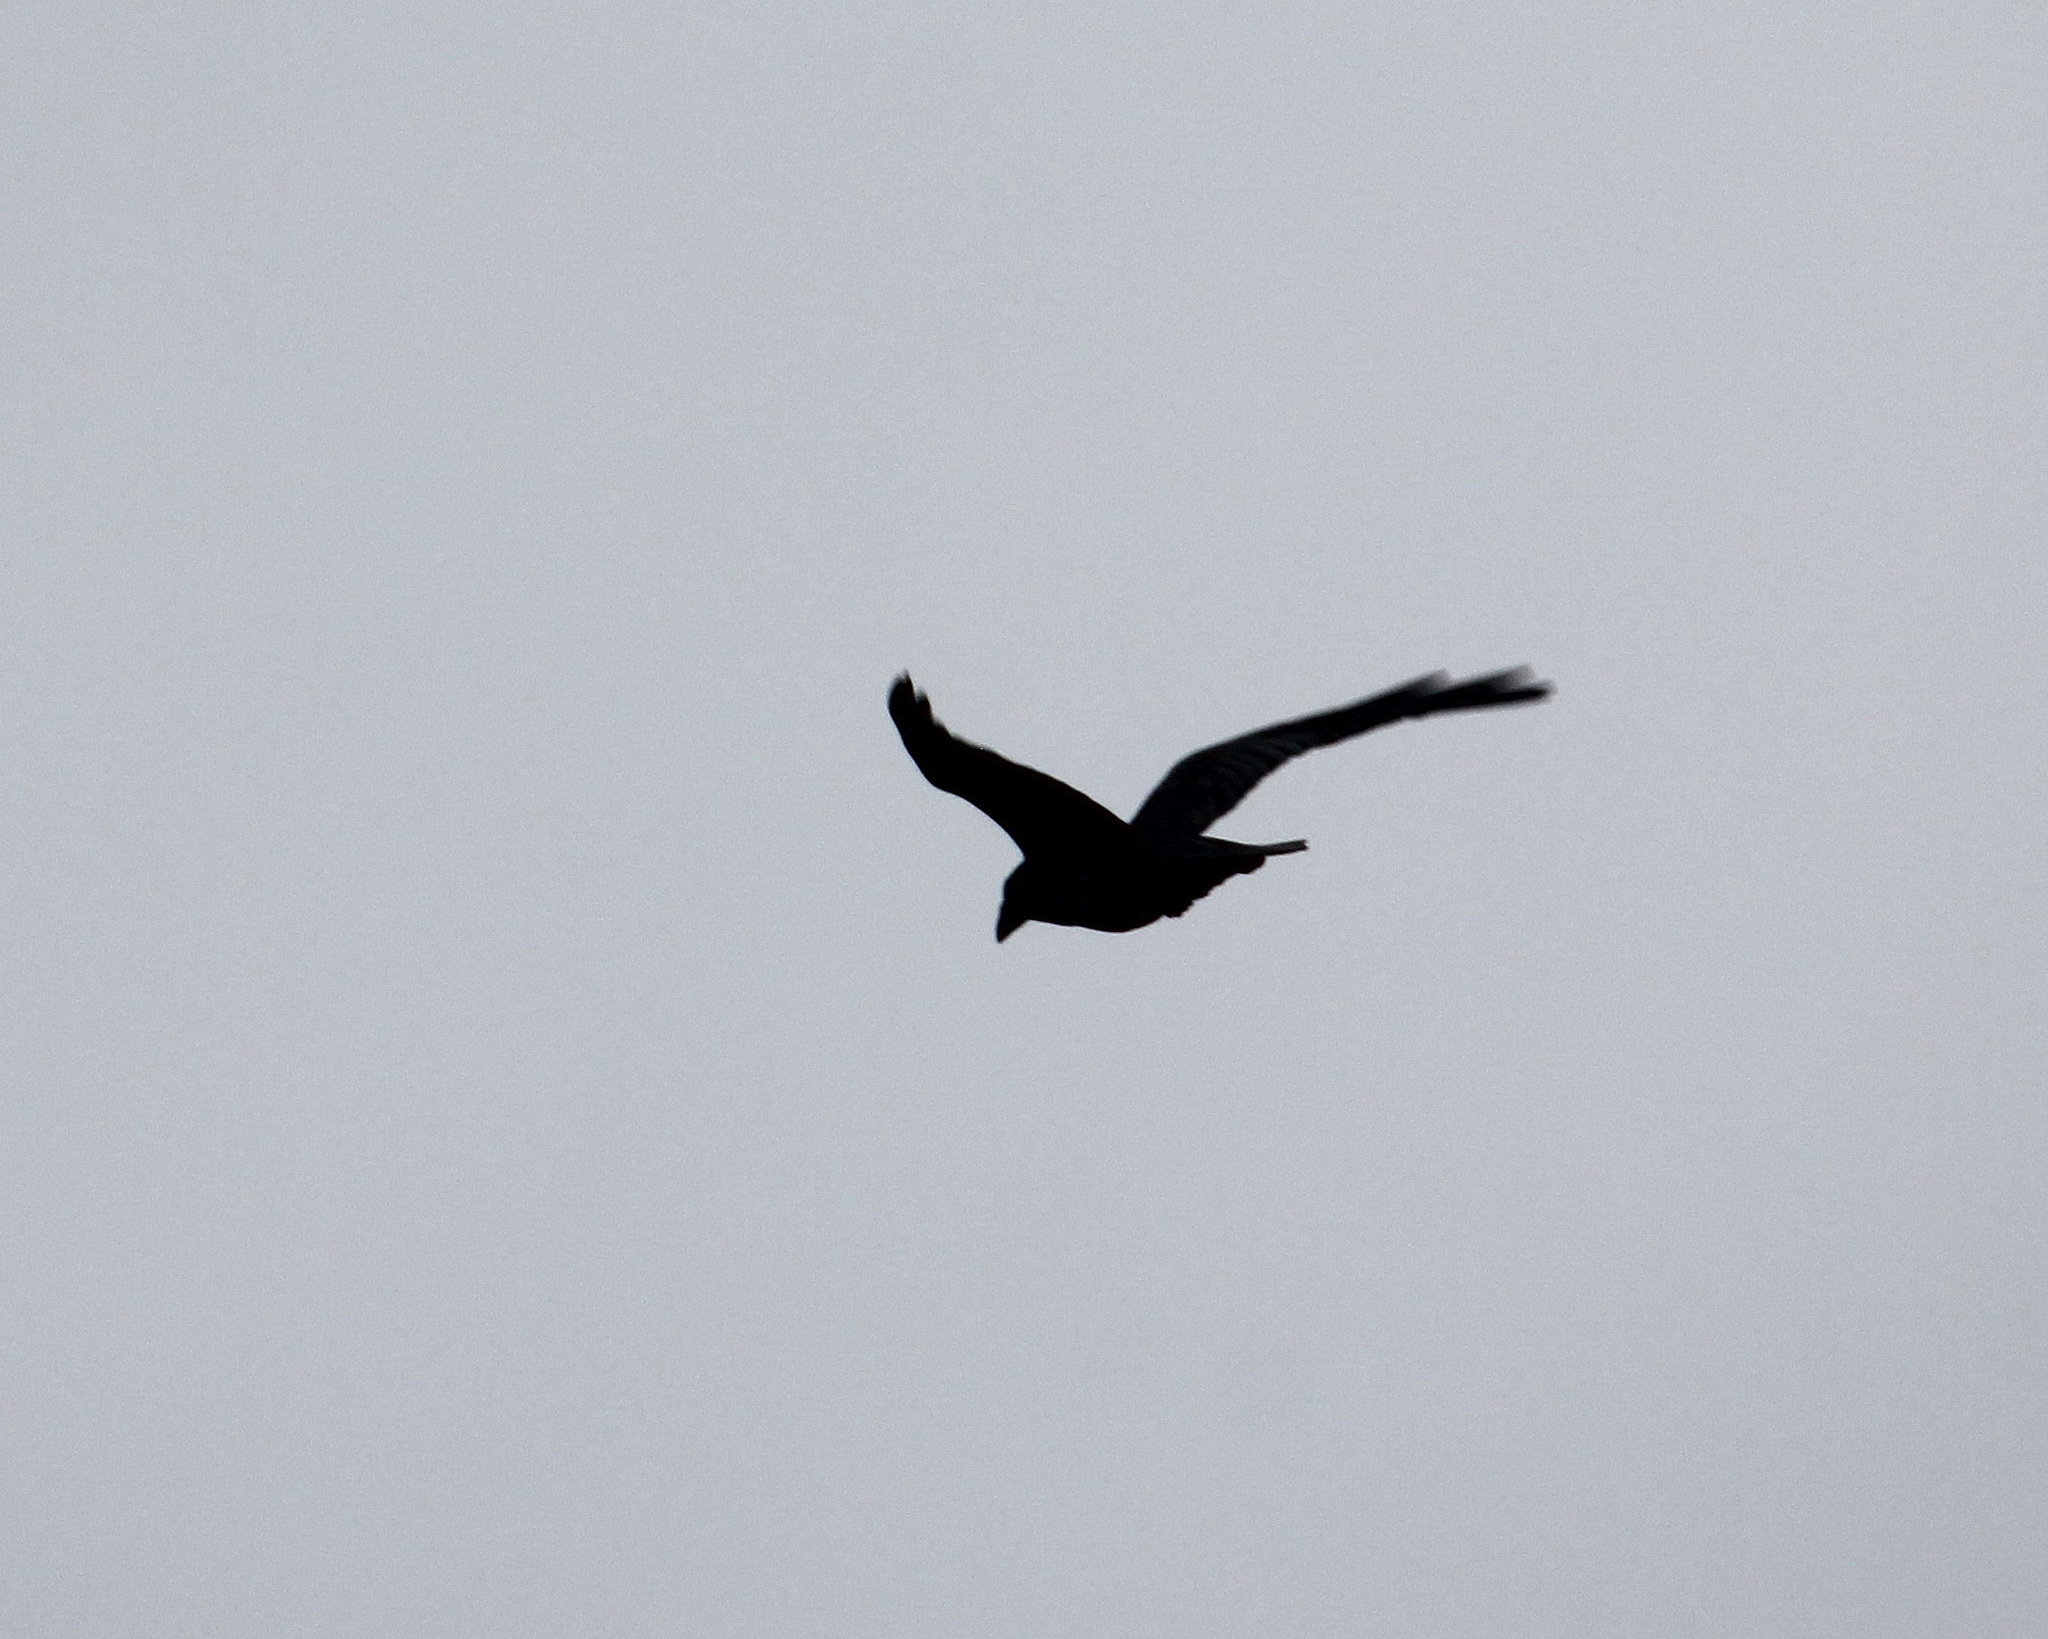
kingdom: Animalia
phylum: Chordata
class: Aves
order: Passeriformes
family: Corvidae
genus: Corvus
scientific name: Corvus corax
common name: Common raven
